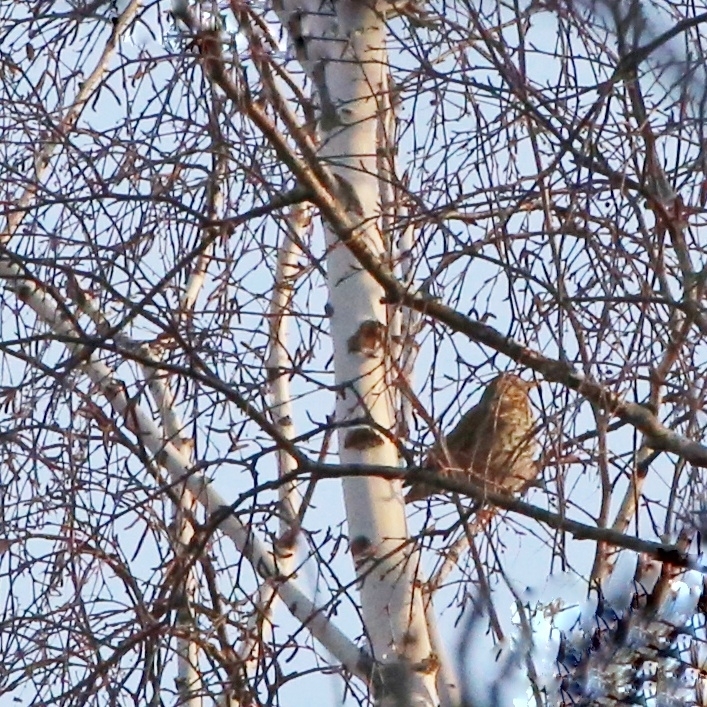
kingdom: Animalia
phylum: Chordata
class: Aves
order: Passeriformes
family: Turdidae
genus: Turdus
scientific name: Turdus philomelos
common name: Song thrush
